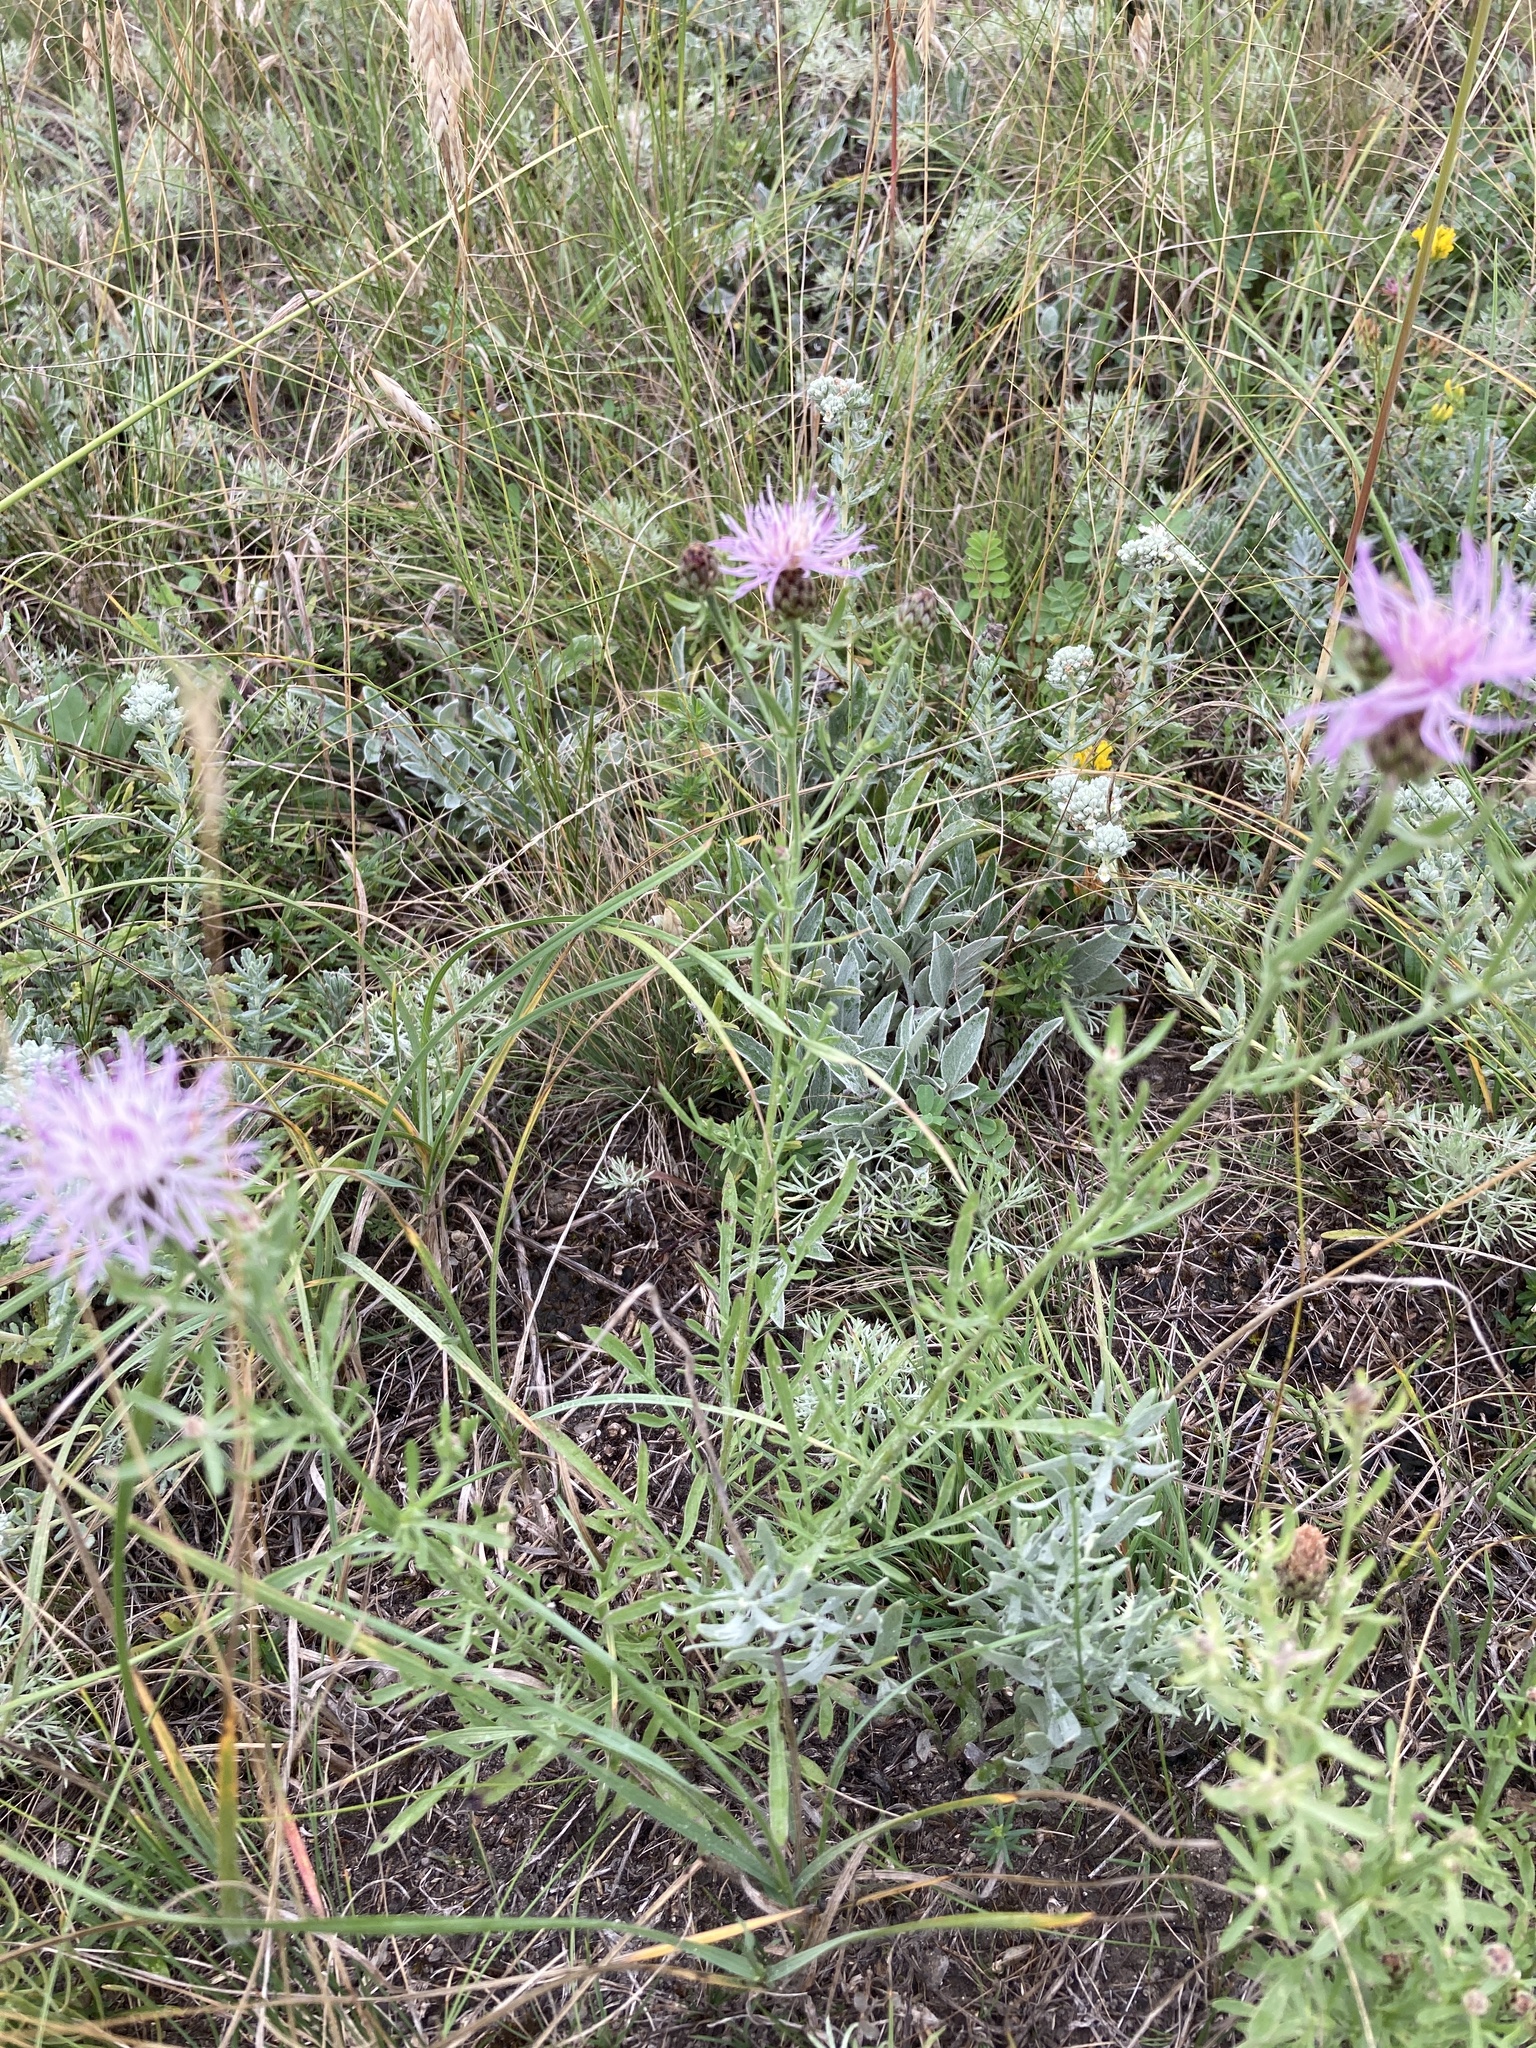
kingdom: Plantae
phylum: Tracheophyta
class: Magnoliopsida
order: Asterales
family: Asteraceae
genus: Centaurea
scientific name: Centaurea stoebe
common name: Spotted knapweed
